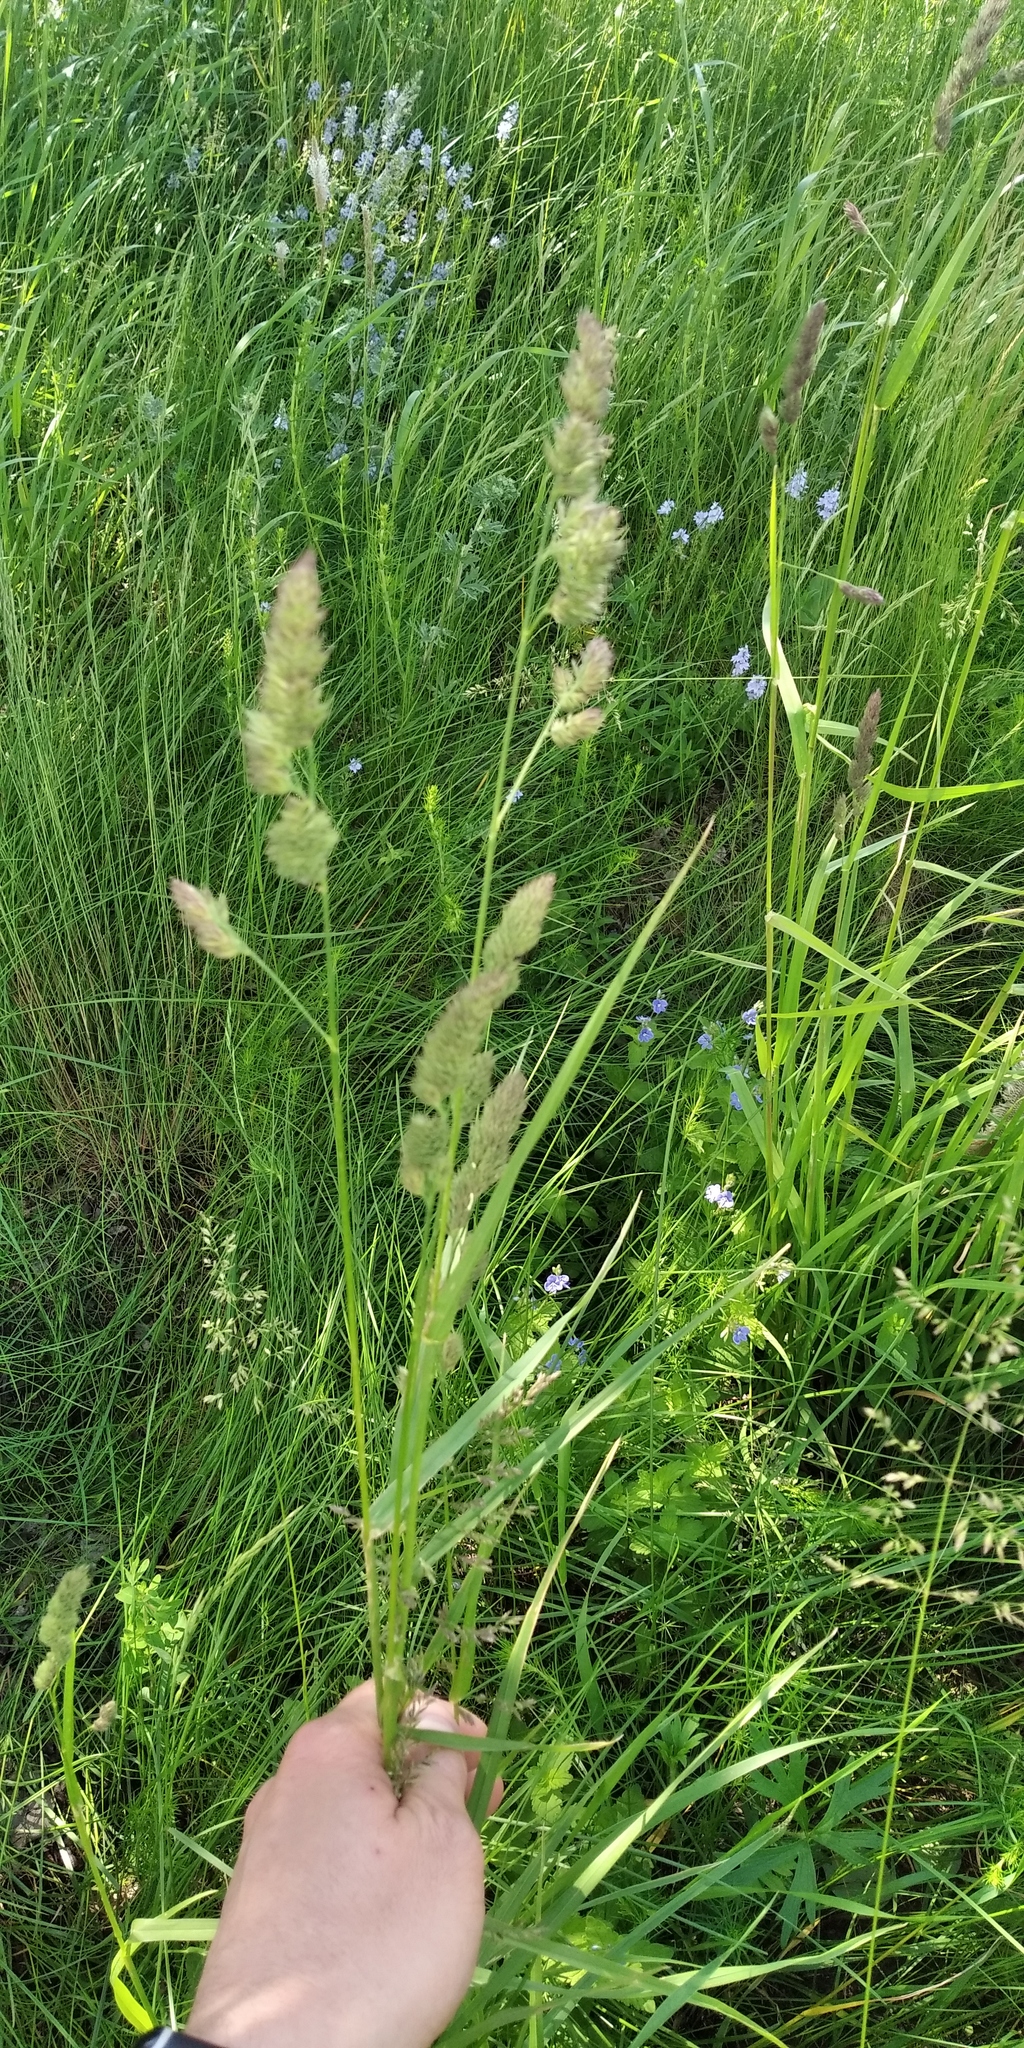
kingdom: Plantae
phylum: Tracheophyta
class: Liliopsida
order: Poales
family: Poaceae
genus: Dactylis
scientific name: Dactylis glomerata
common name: Orchardgrass
